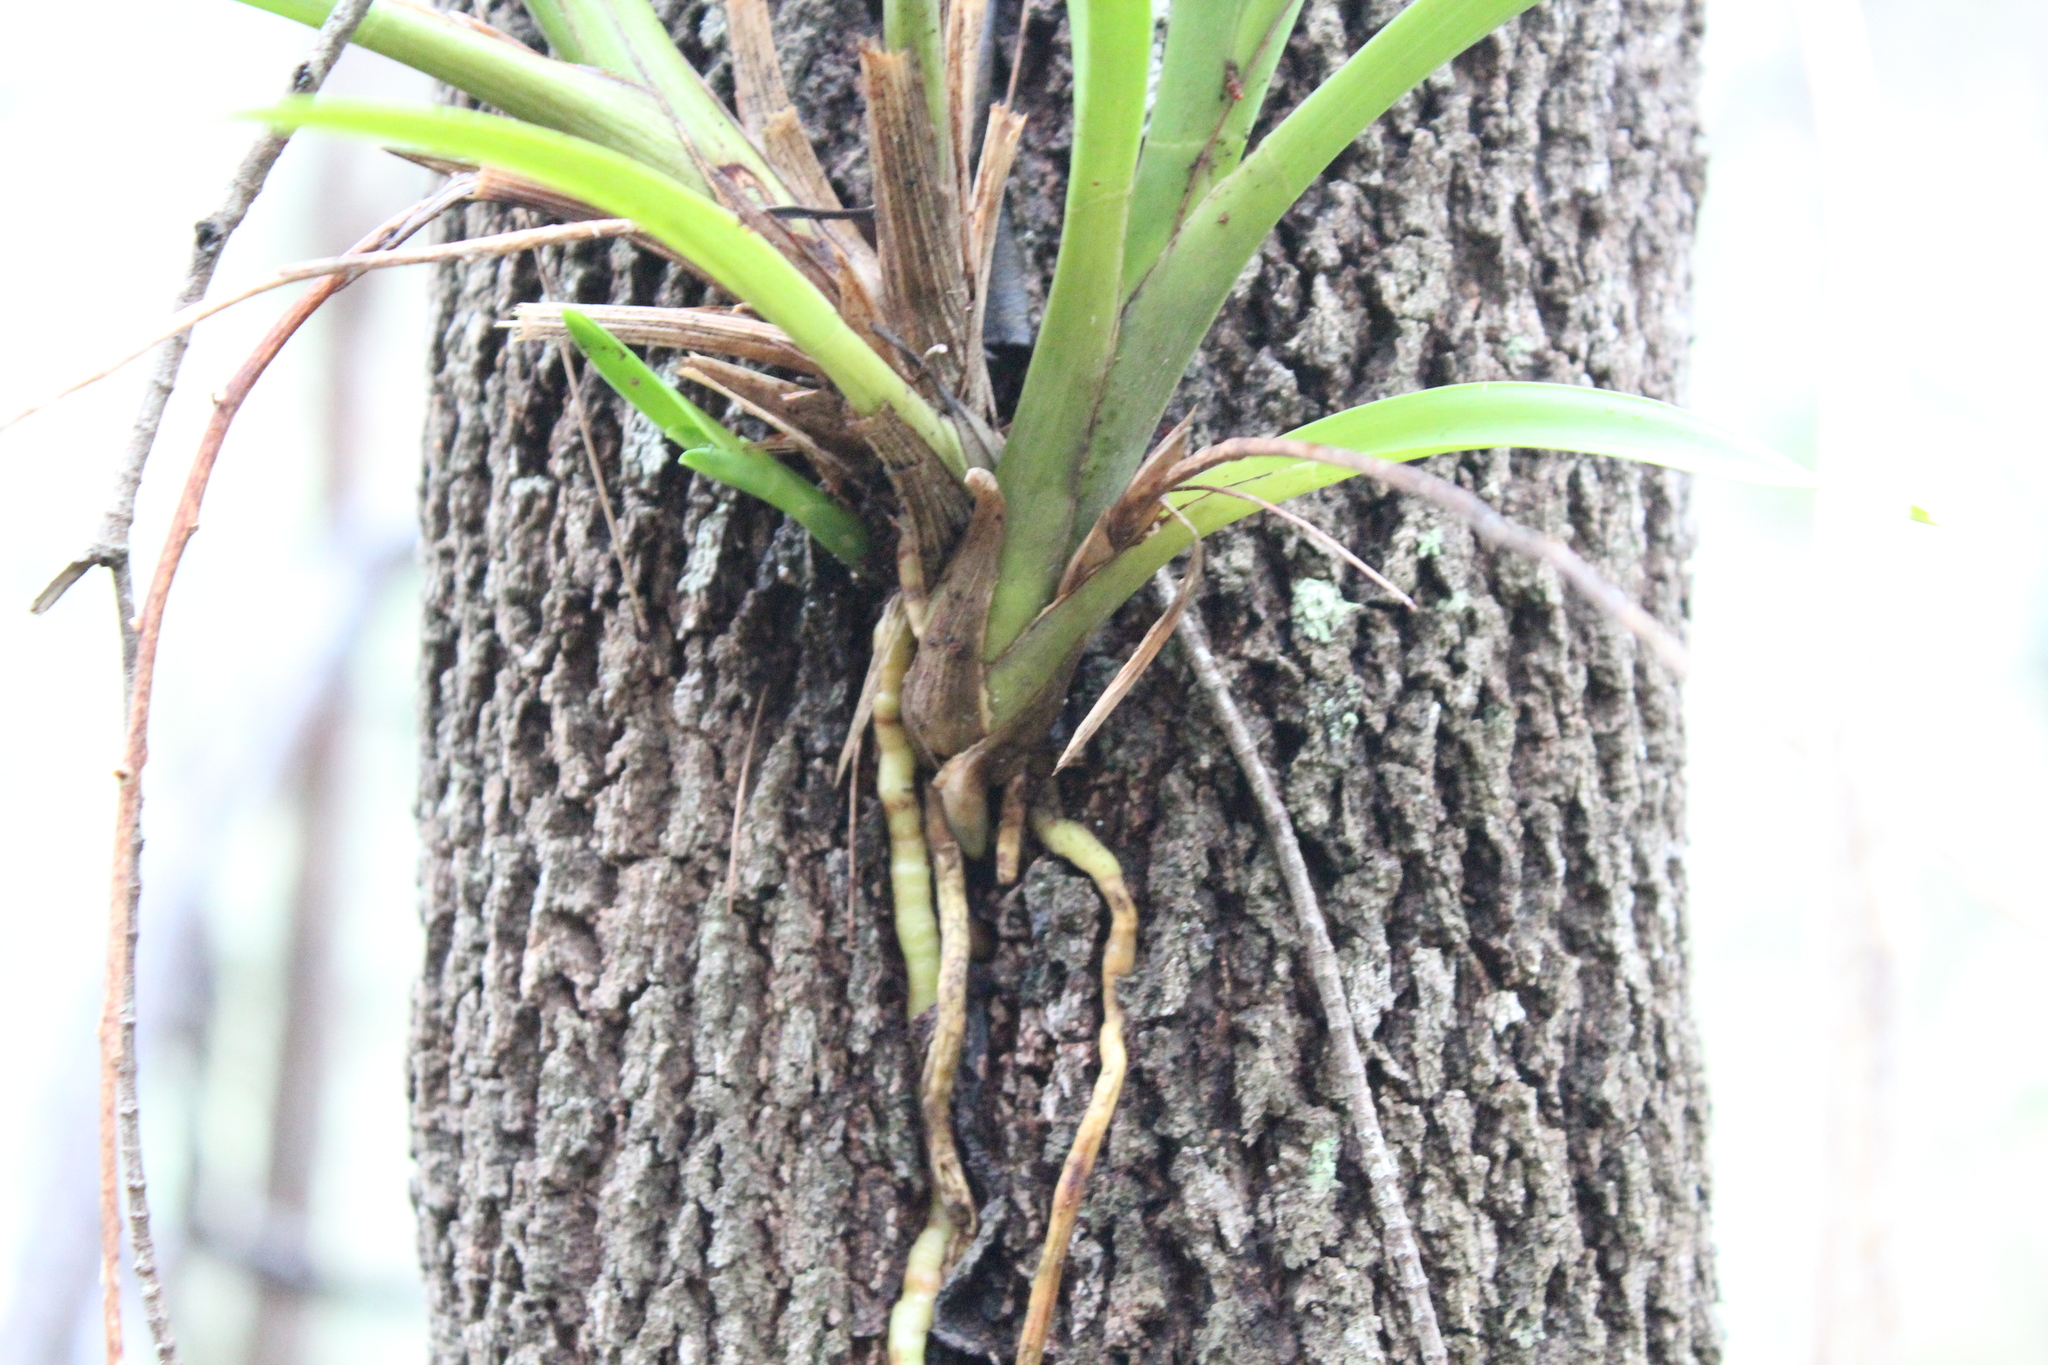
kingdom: Plantae
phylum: Tracheophyta
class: Liliopsida
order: Asparagales
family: Orchidaceae
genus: Cymbidium
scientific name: Cymbidium suave
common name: Snake orchid
